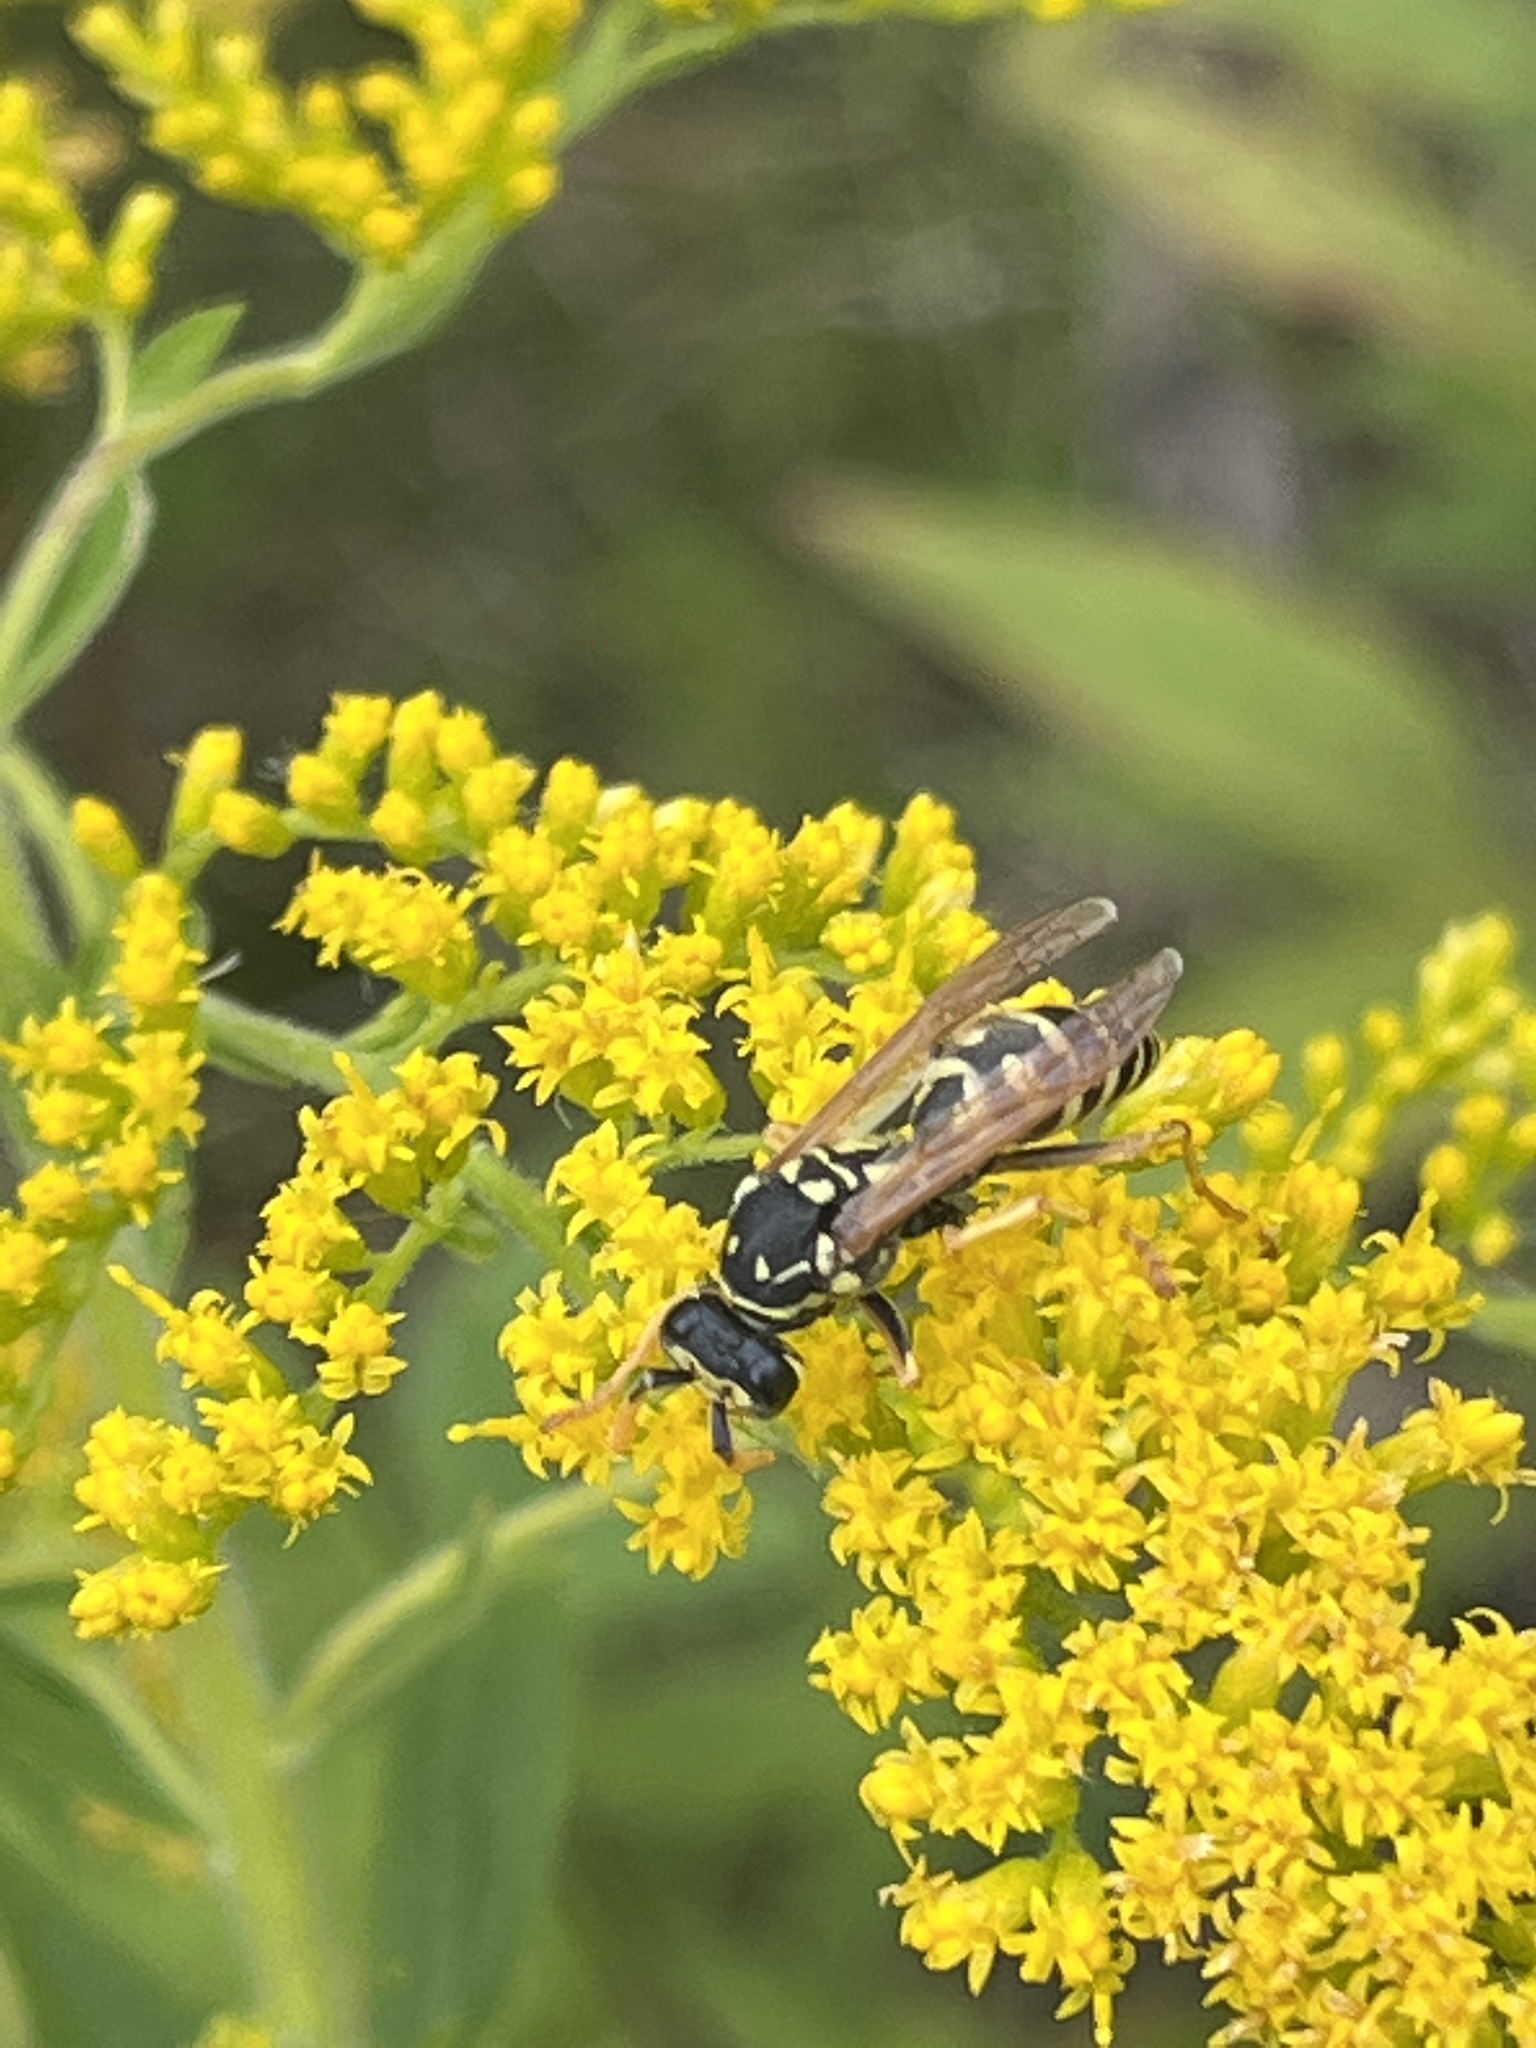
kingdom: Animalia
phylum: Arthropoda
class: Insecta
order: Hymenoptera
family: Eumenidae
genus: Polistes
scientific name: Polistes dominula
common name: Paper wasp
